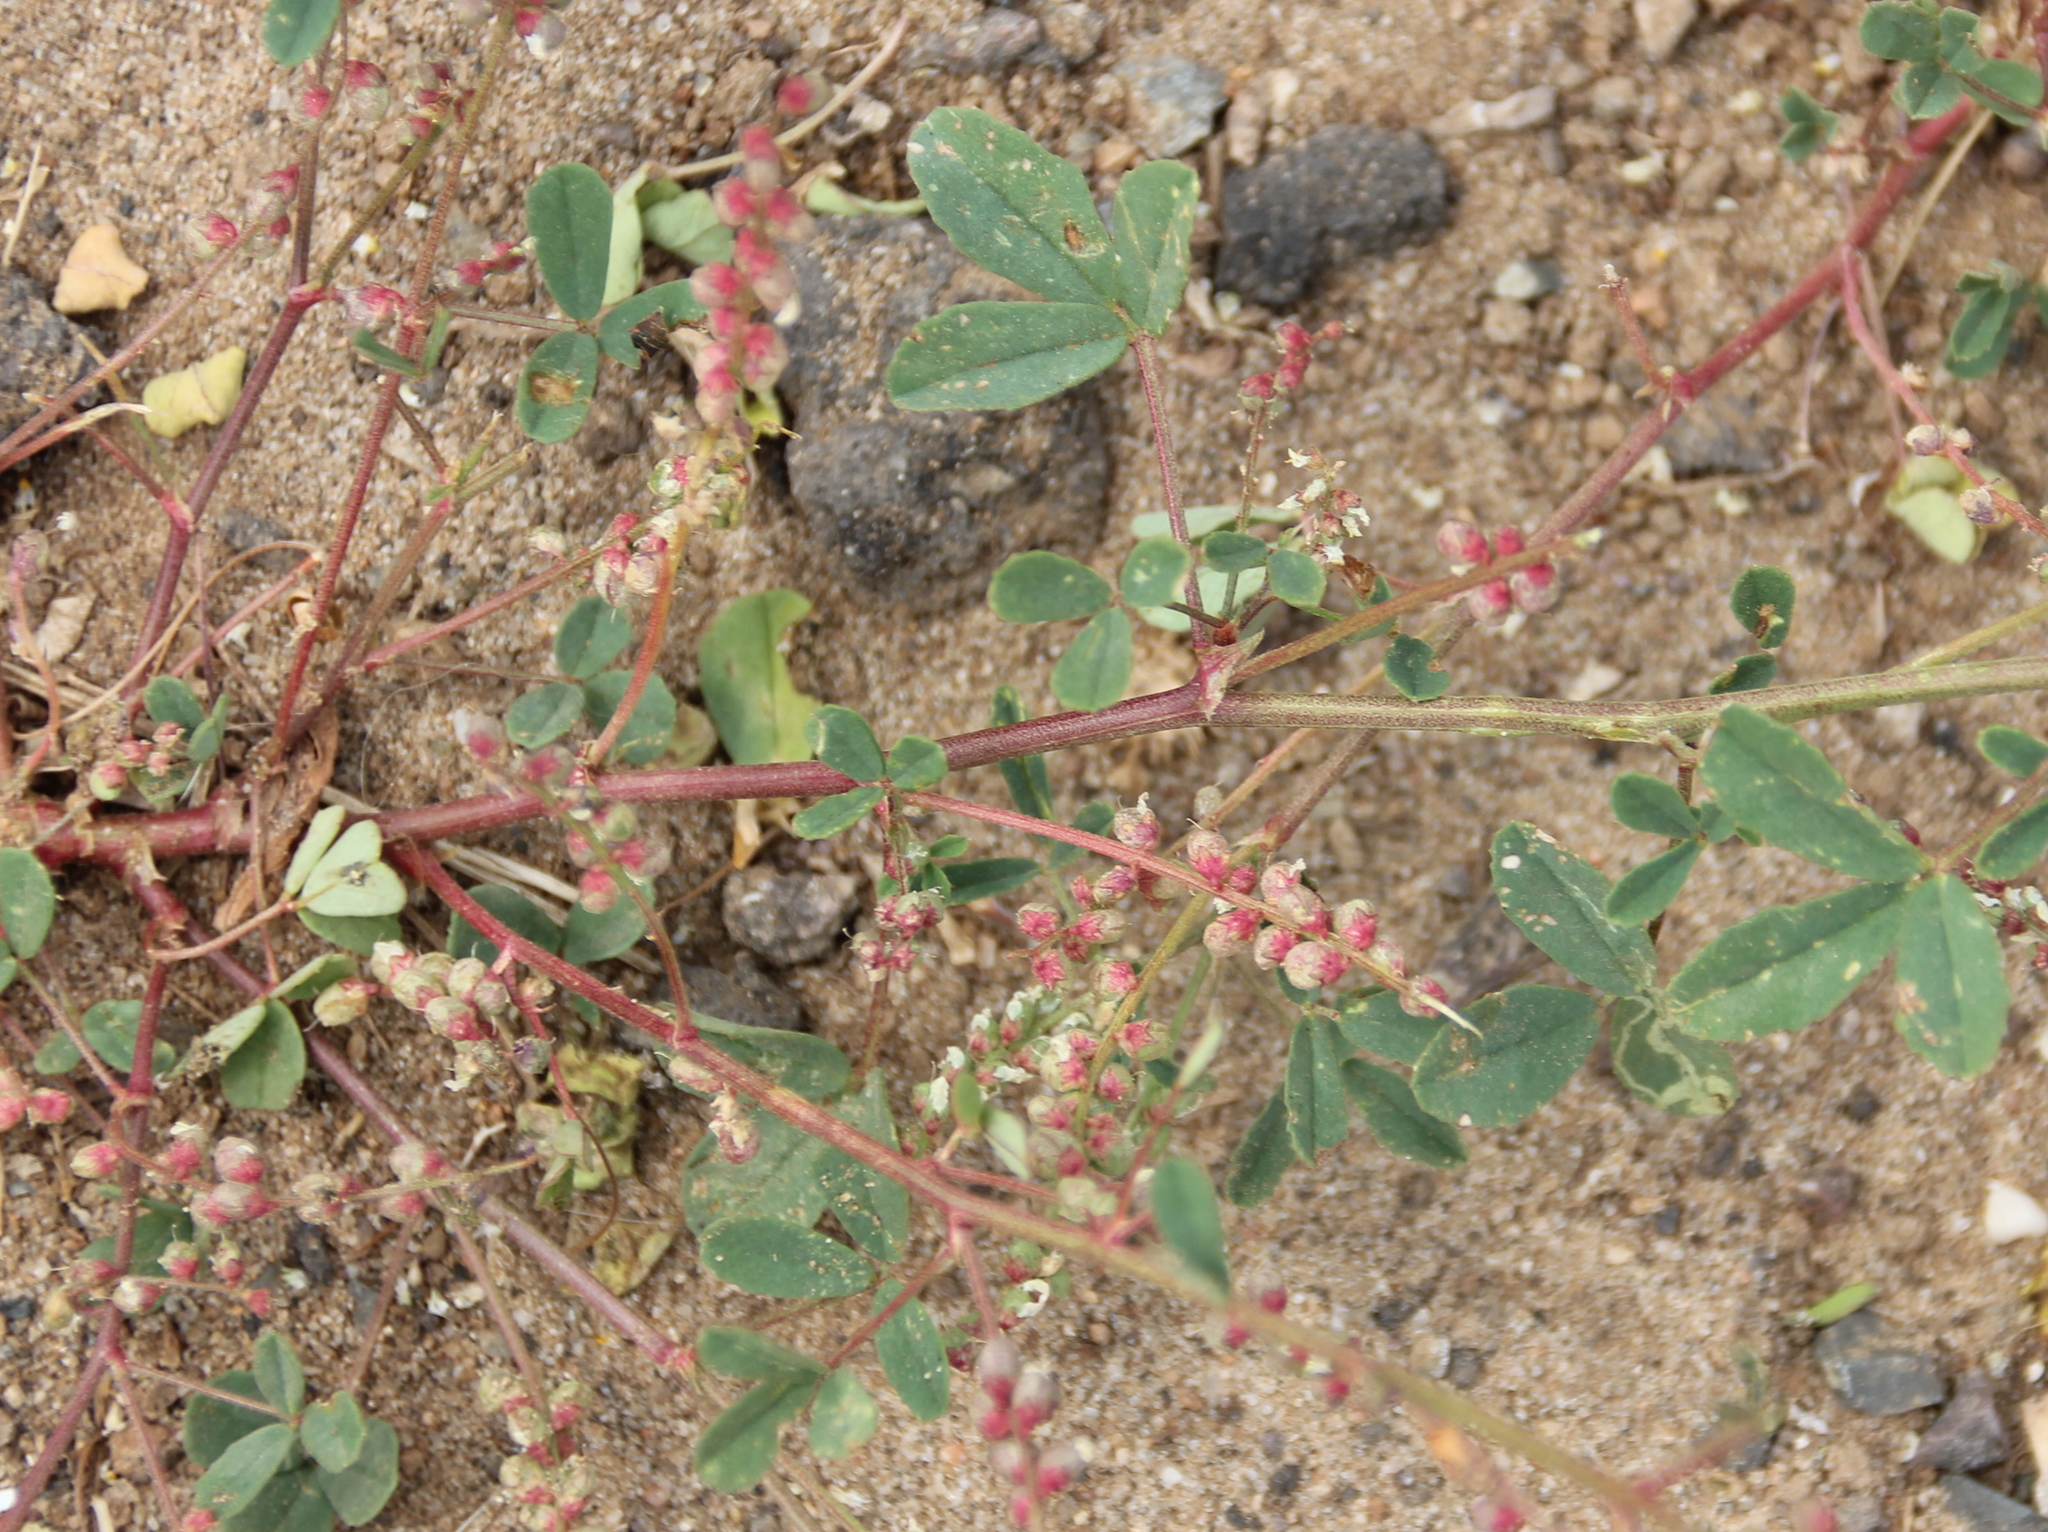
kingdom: Plantae
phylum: Tracheophyta
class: Magnoliopsida
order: Fabales
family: Fabaceae
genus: Melilotus
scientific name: Melilotus indicus
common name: Small melilot
